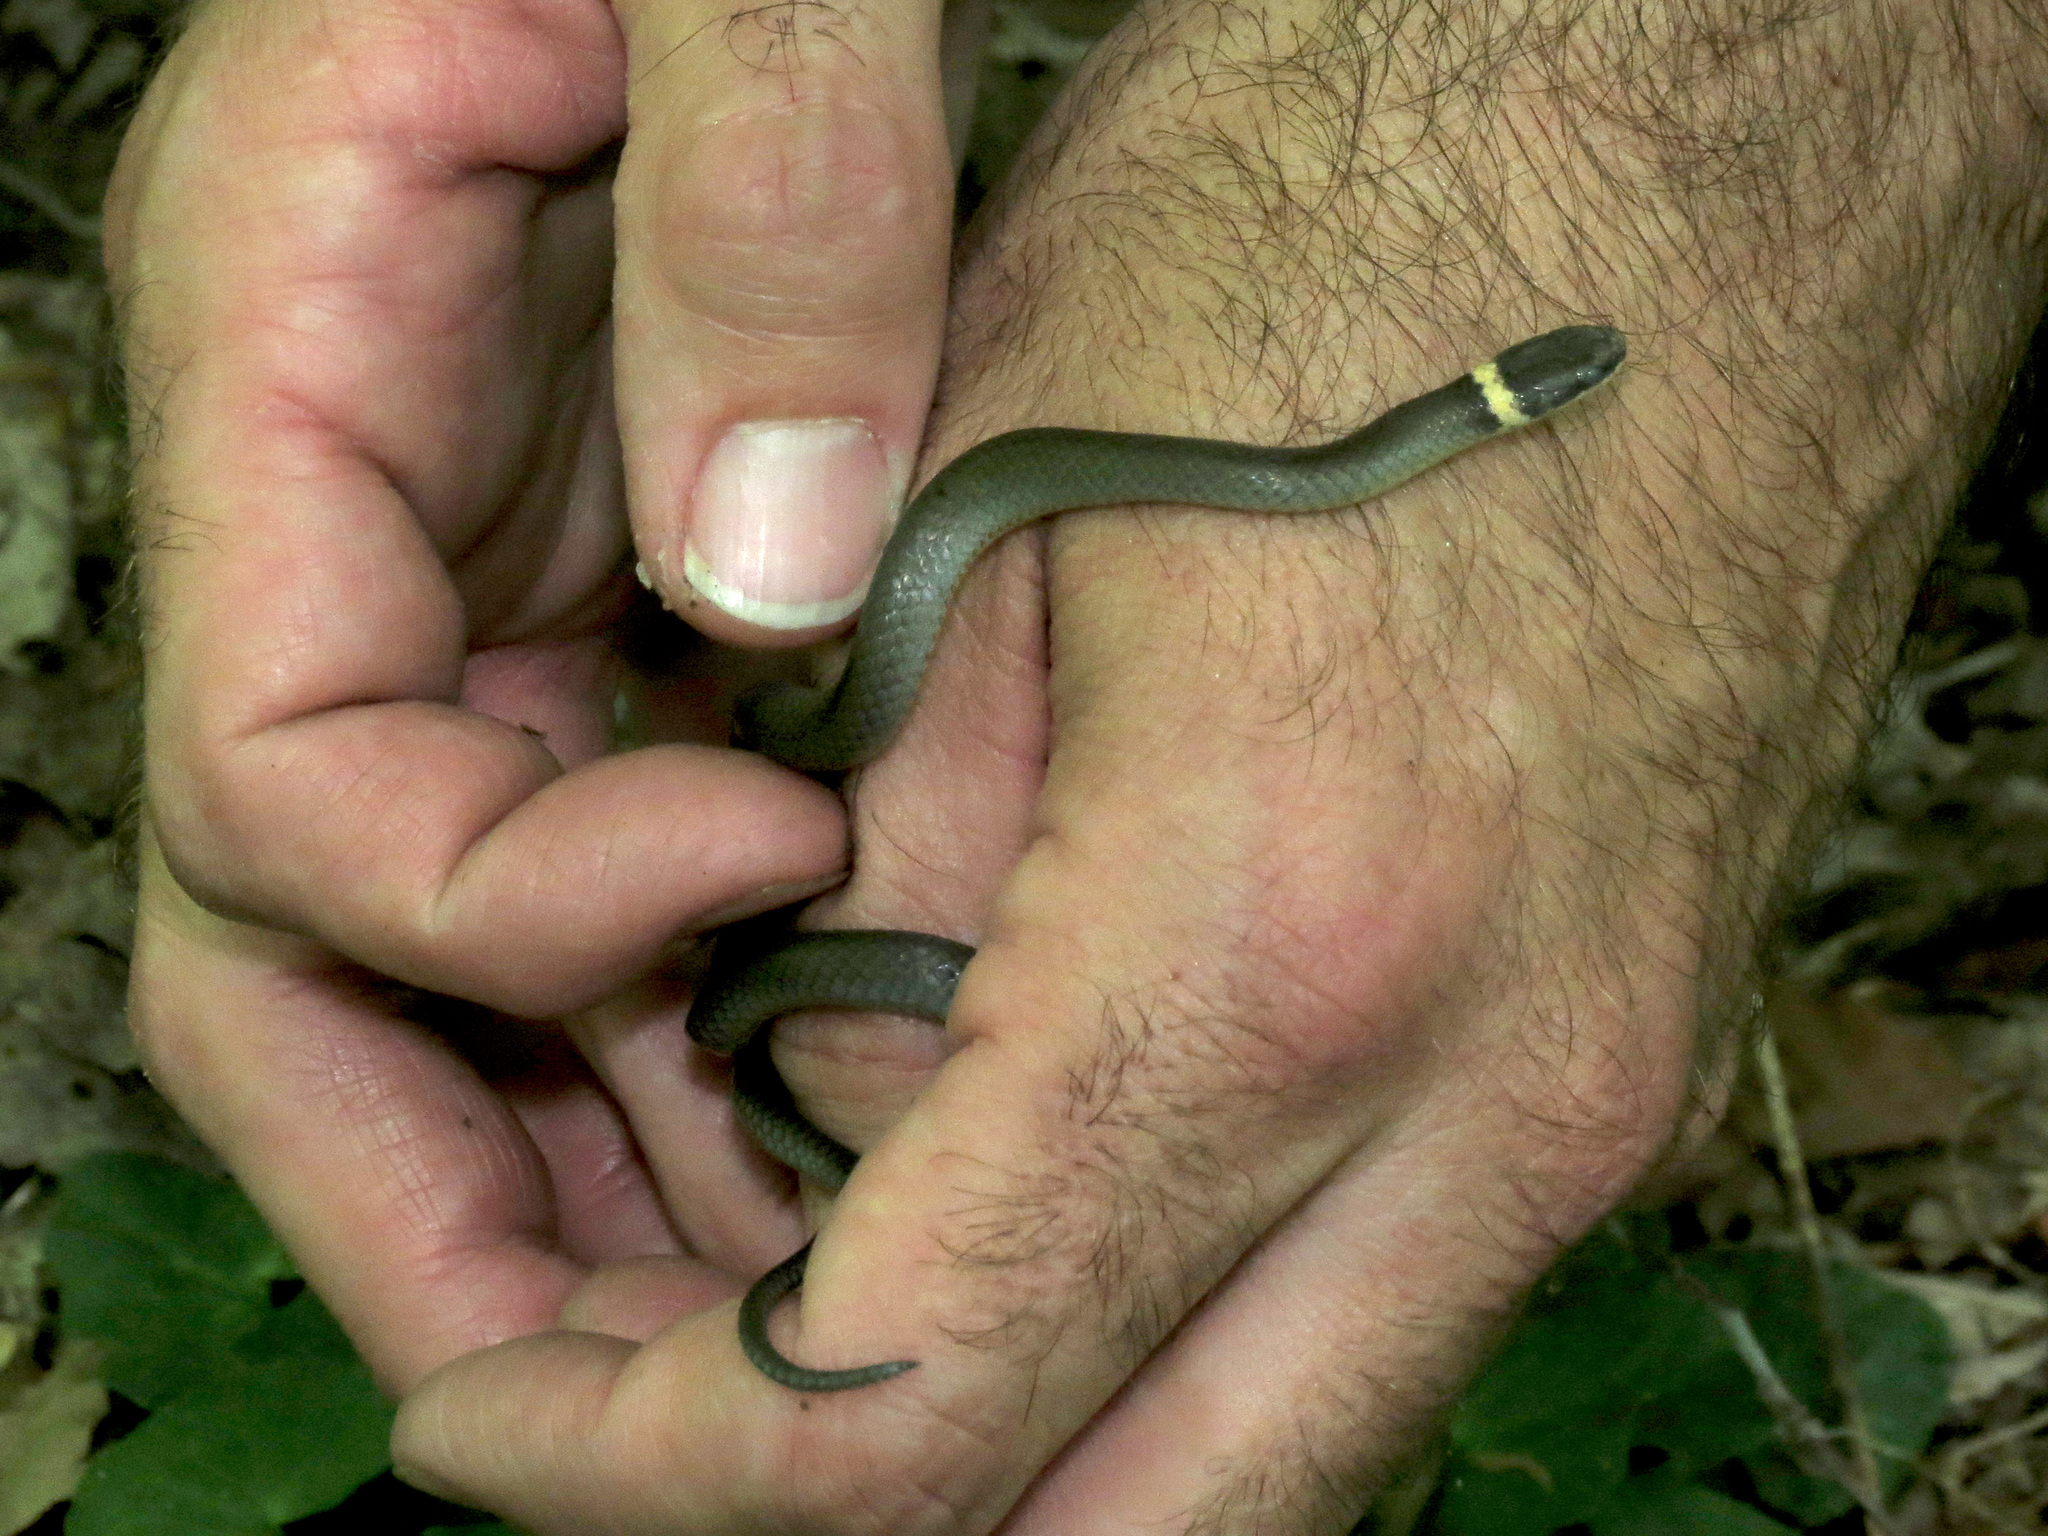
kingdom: Animalia
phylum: Chordata
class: Squamata
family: Colubridae
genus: Diadophis
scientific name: Diadophis punctatus
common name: Ringneck snake
